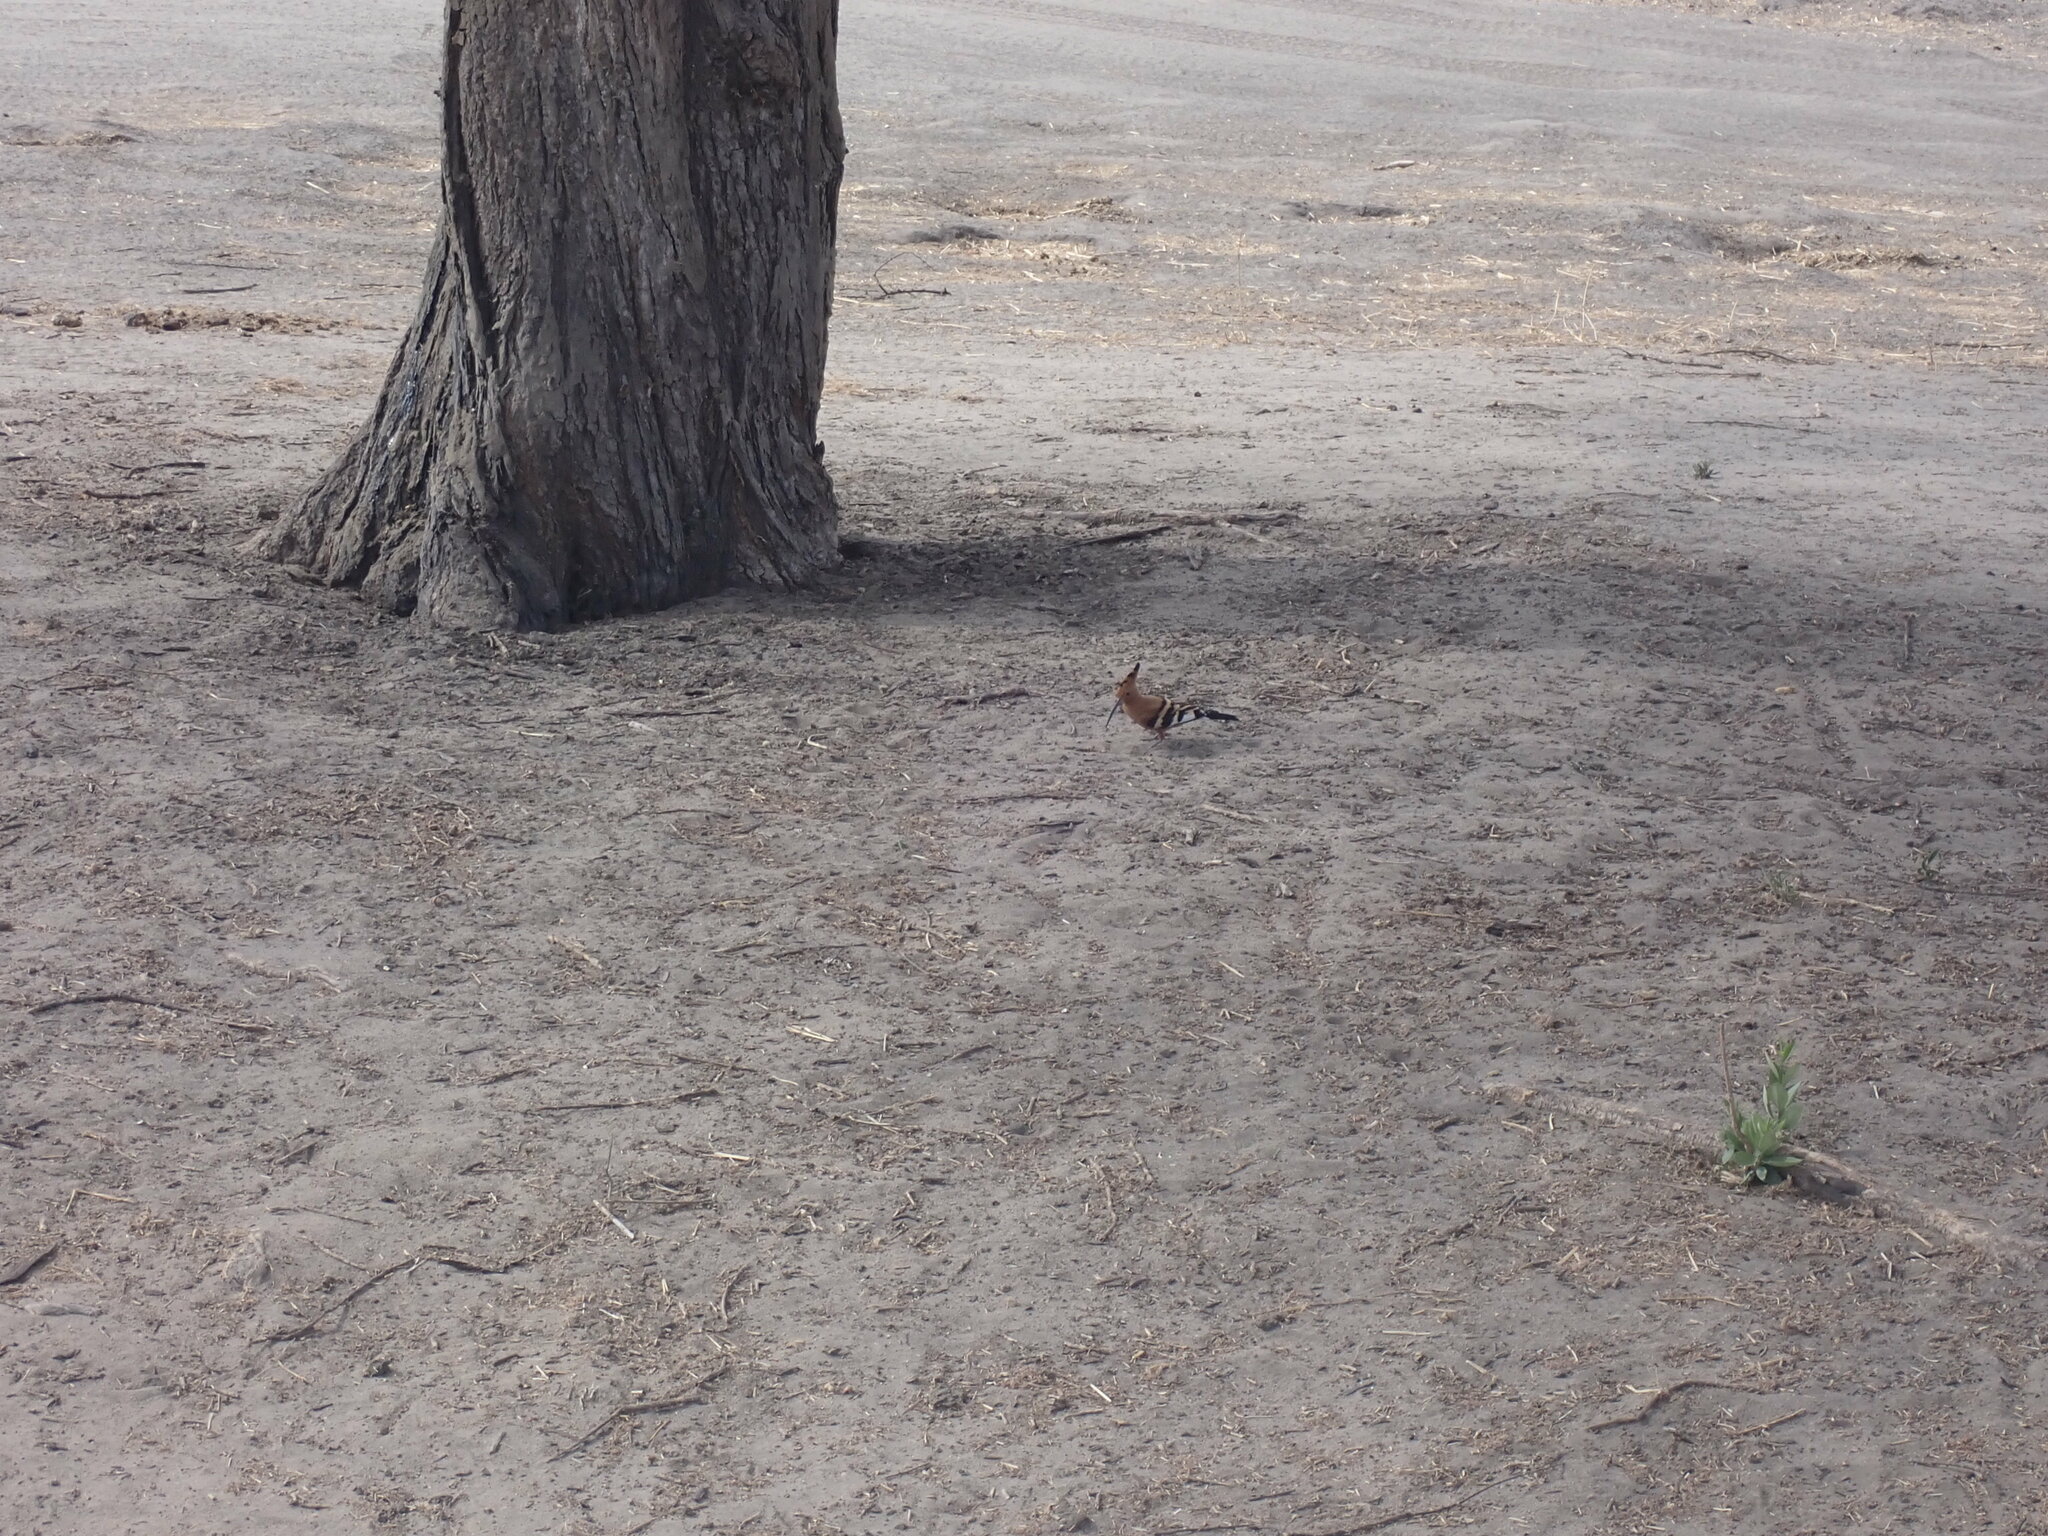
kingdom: Animalia
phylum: Chordata
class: Aves
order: Bucerotiformes
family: Upupidae
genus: Upupa
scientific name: Upupa epops
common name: Eurasian hoopoe
